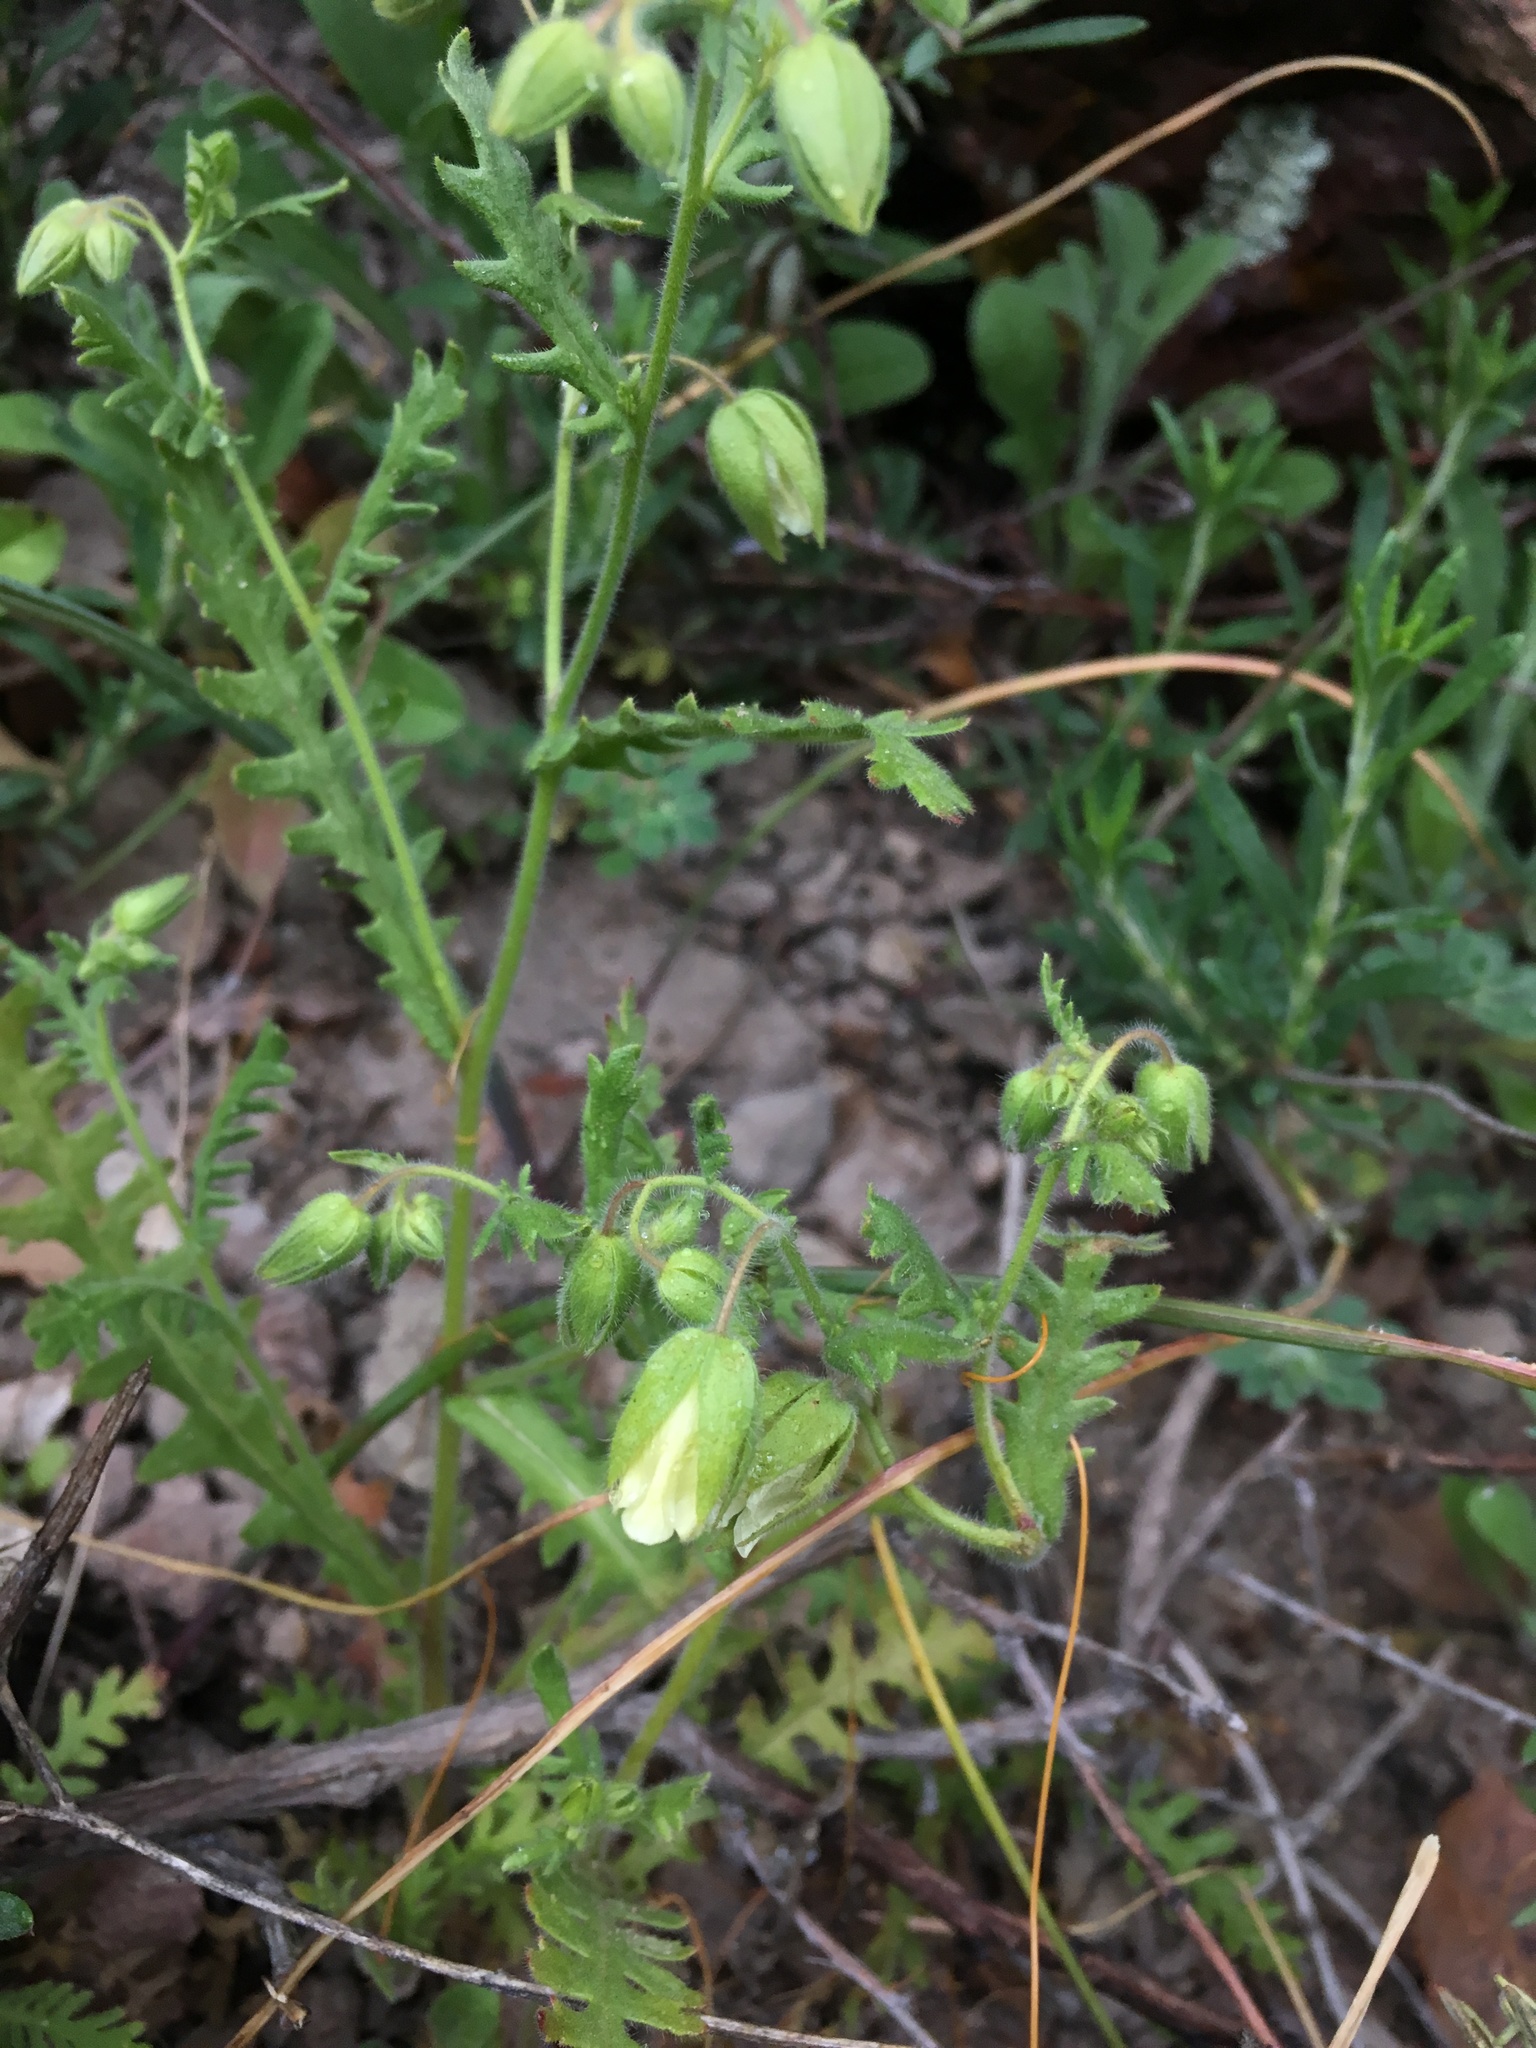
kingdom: Plantae
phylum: Tracheophyta
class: Magnoliopsida
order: Boraginales
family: Hydrophyllaceae
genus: Emmenanthe
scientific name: Emmenanthe penduliflora
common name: Whispering-bells
